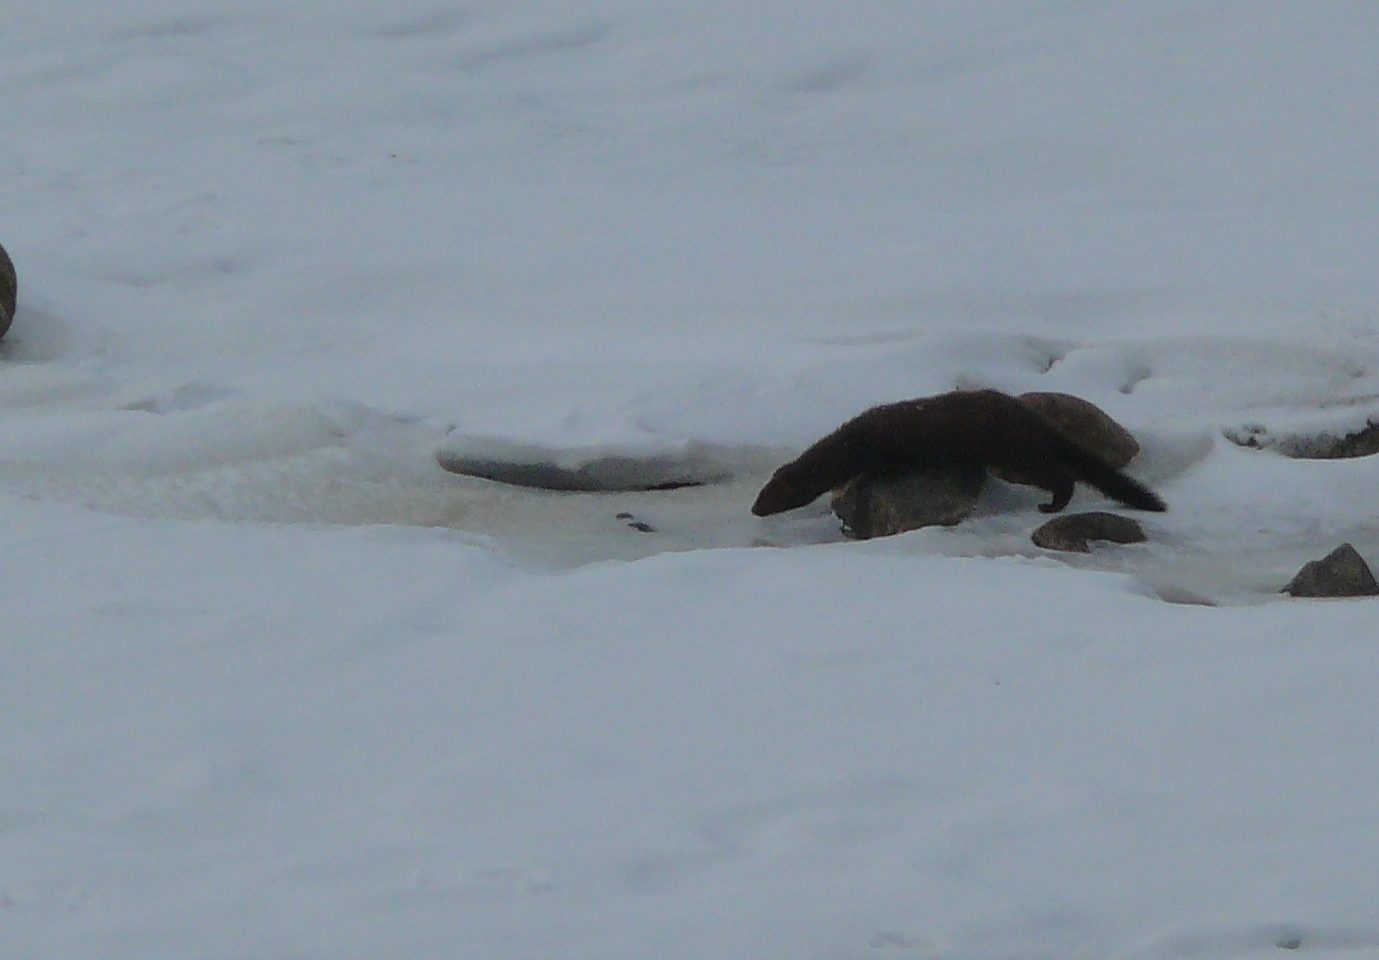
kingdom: Animalia
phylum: Chordata
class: Mammalia
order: Carnivora
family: Mustelidae
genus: Mustela
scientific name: Mustela
